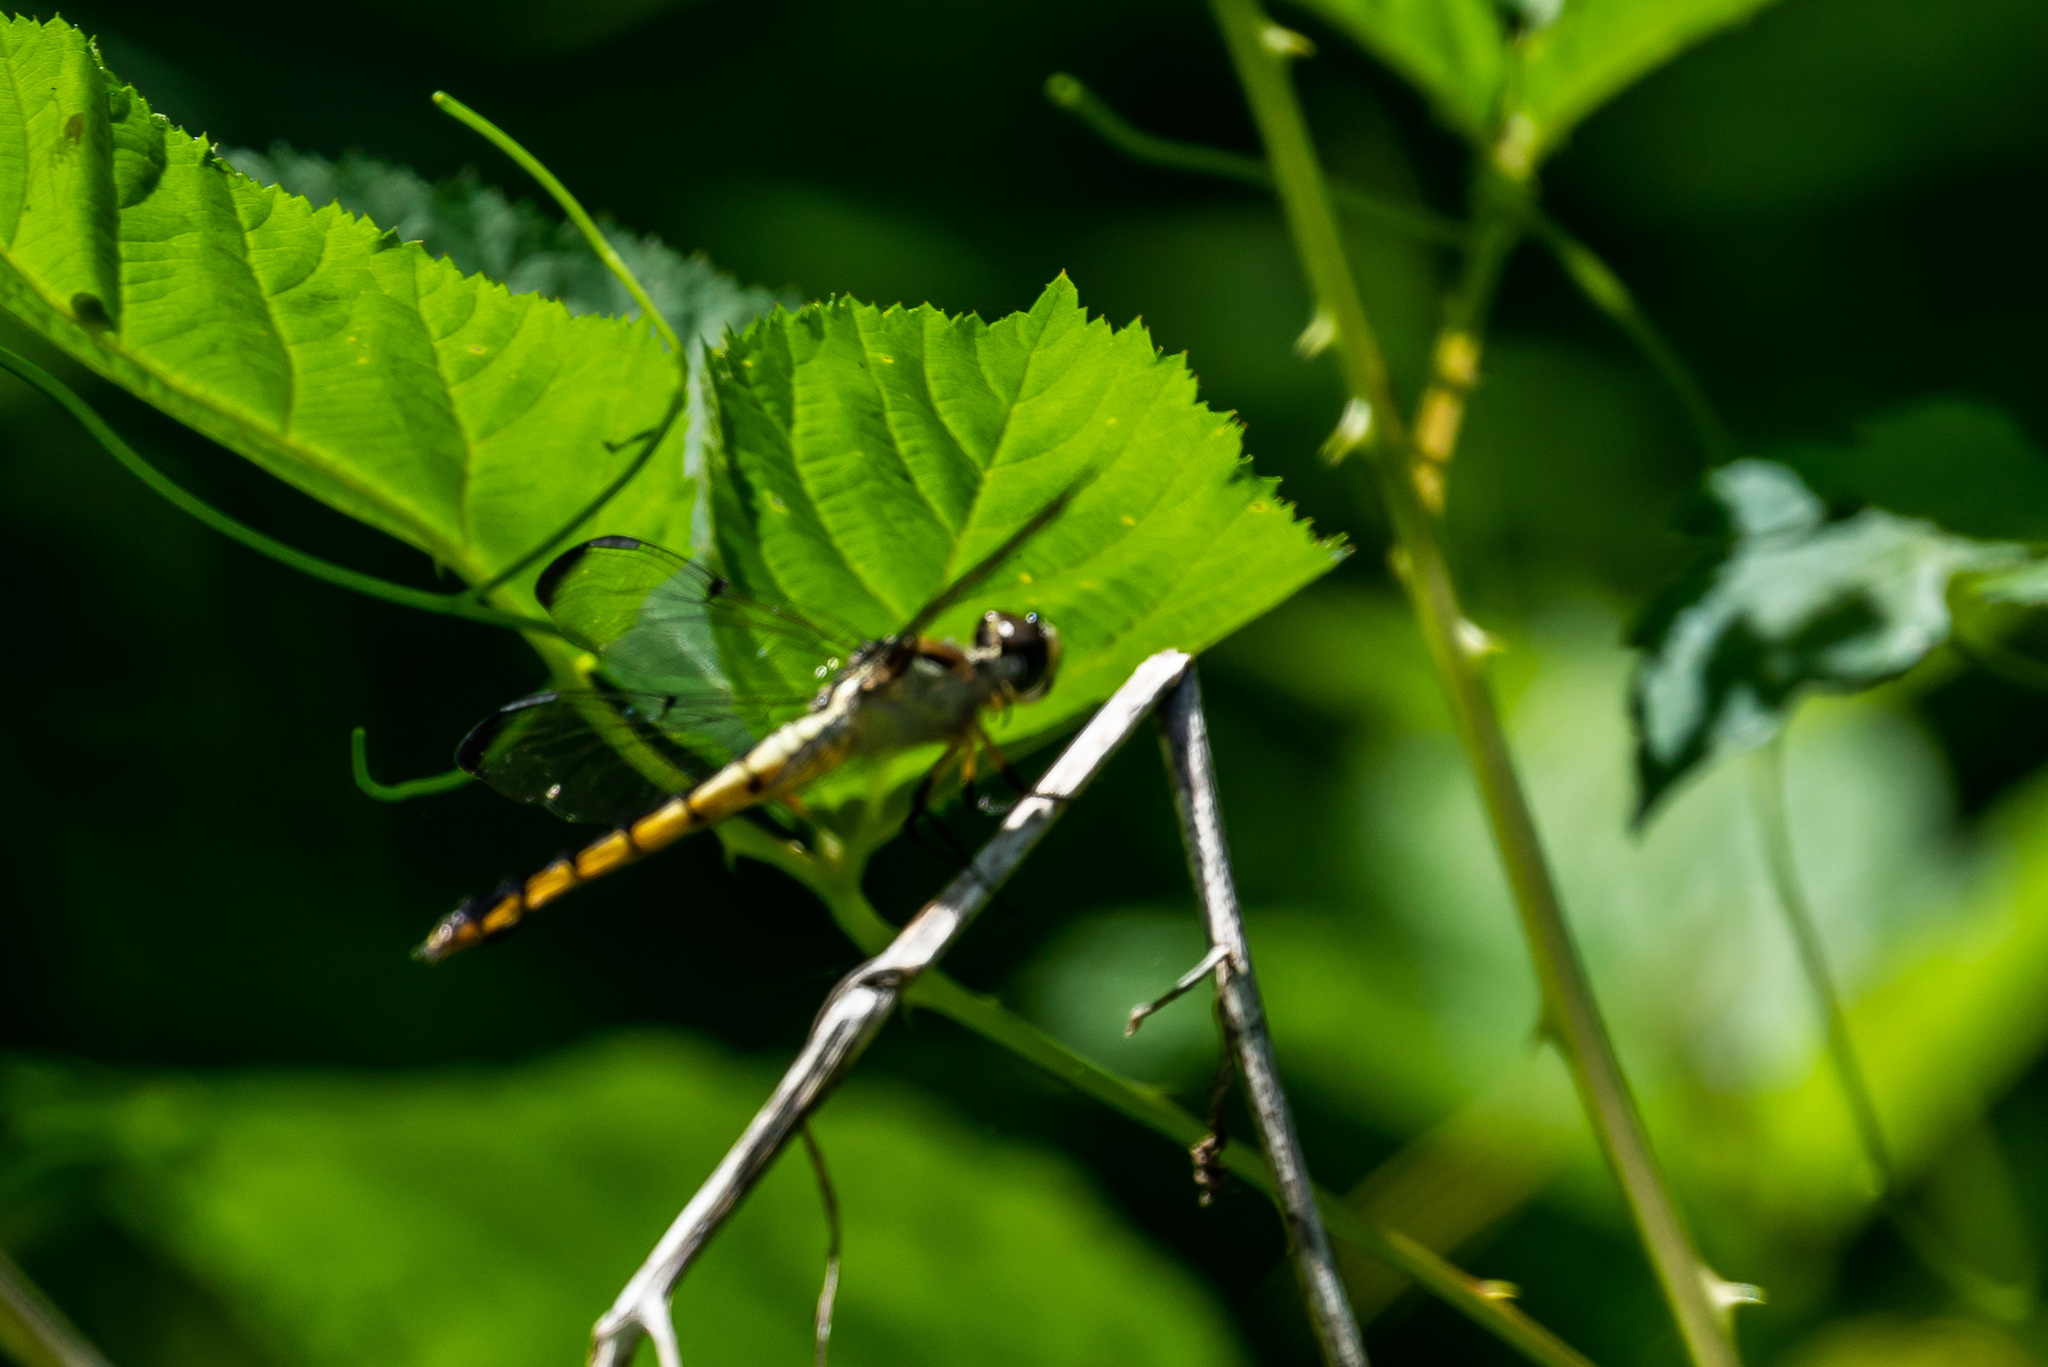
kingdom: Animalia
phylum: Arthropoda
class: Insecta
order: Odonata
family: Libellulidae
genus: Libellula
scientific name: Libellula vibrans
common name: Great blue skimmer
